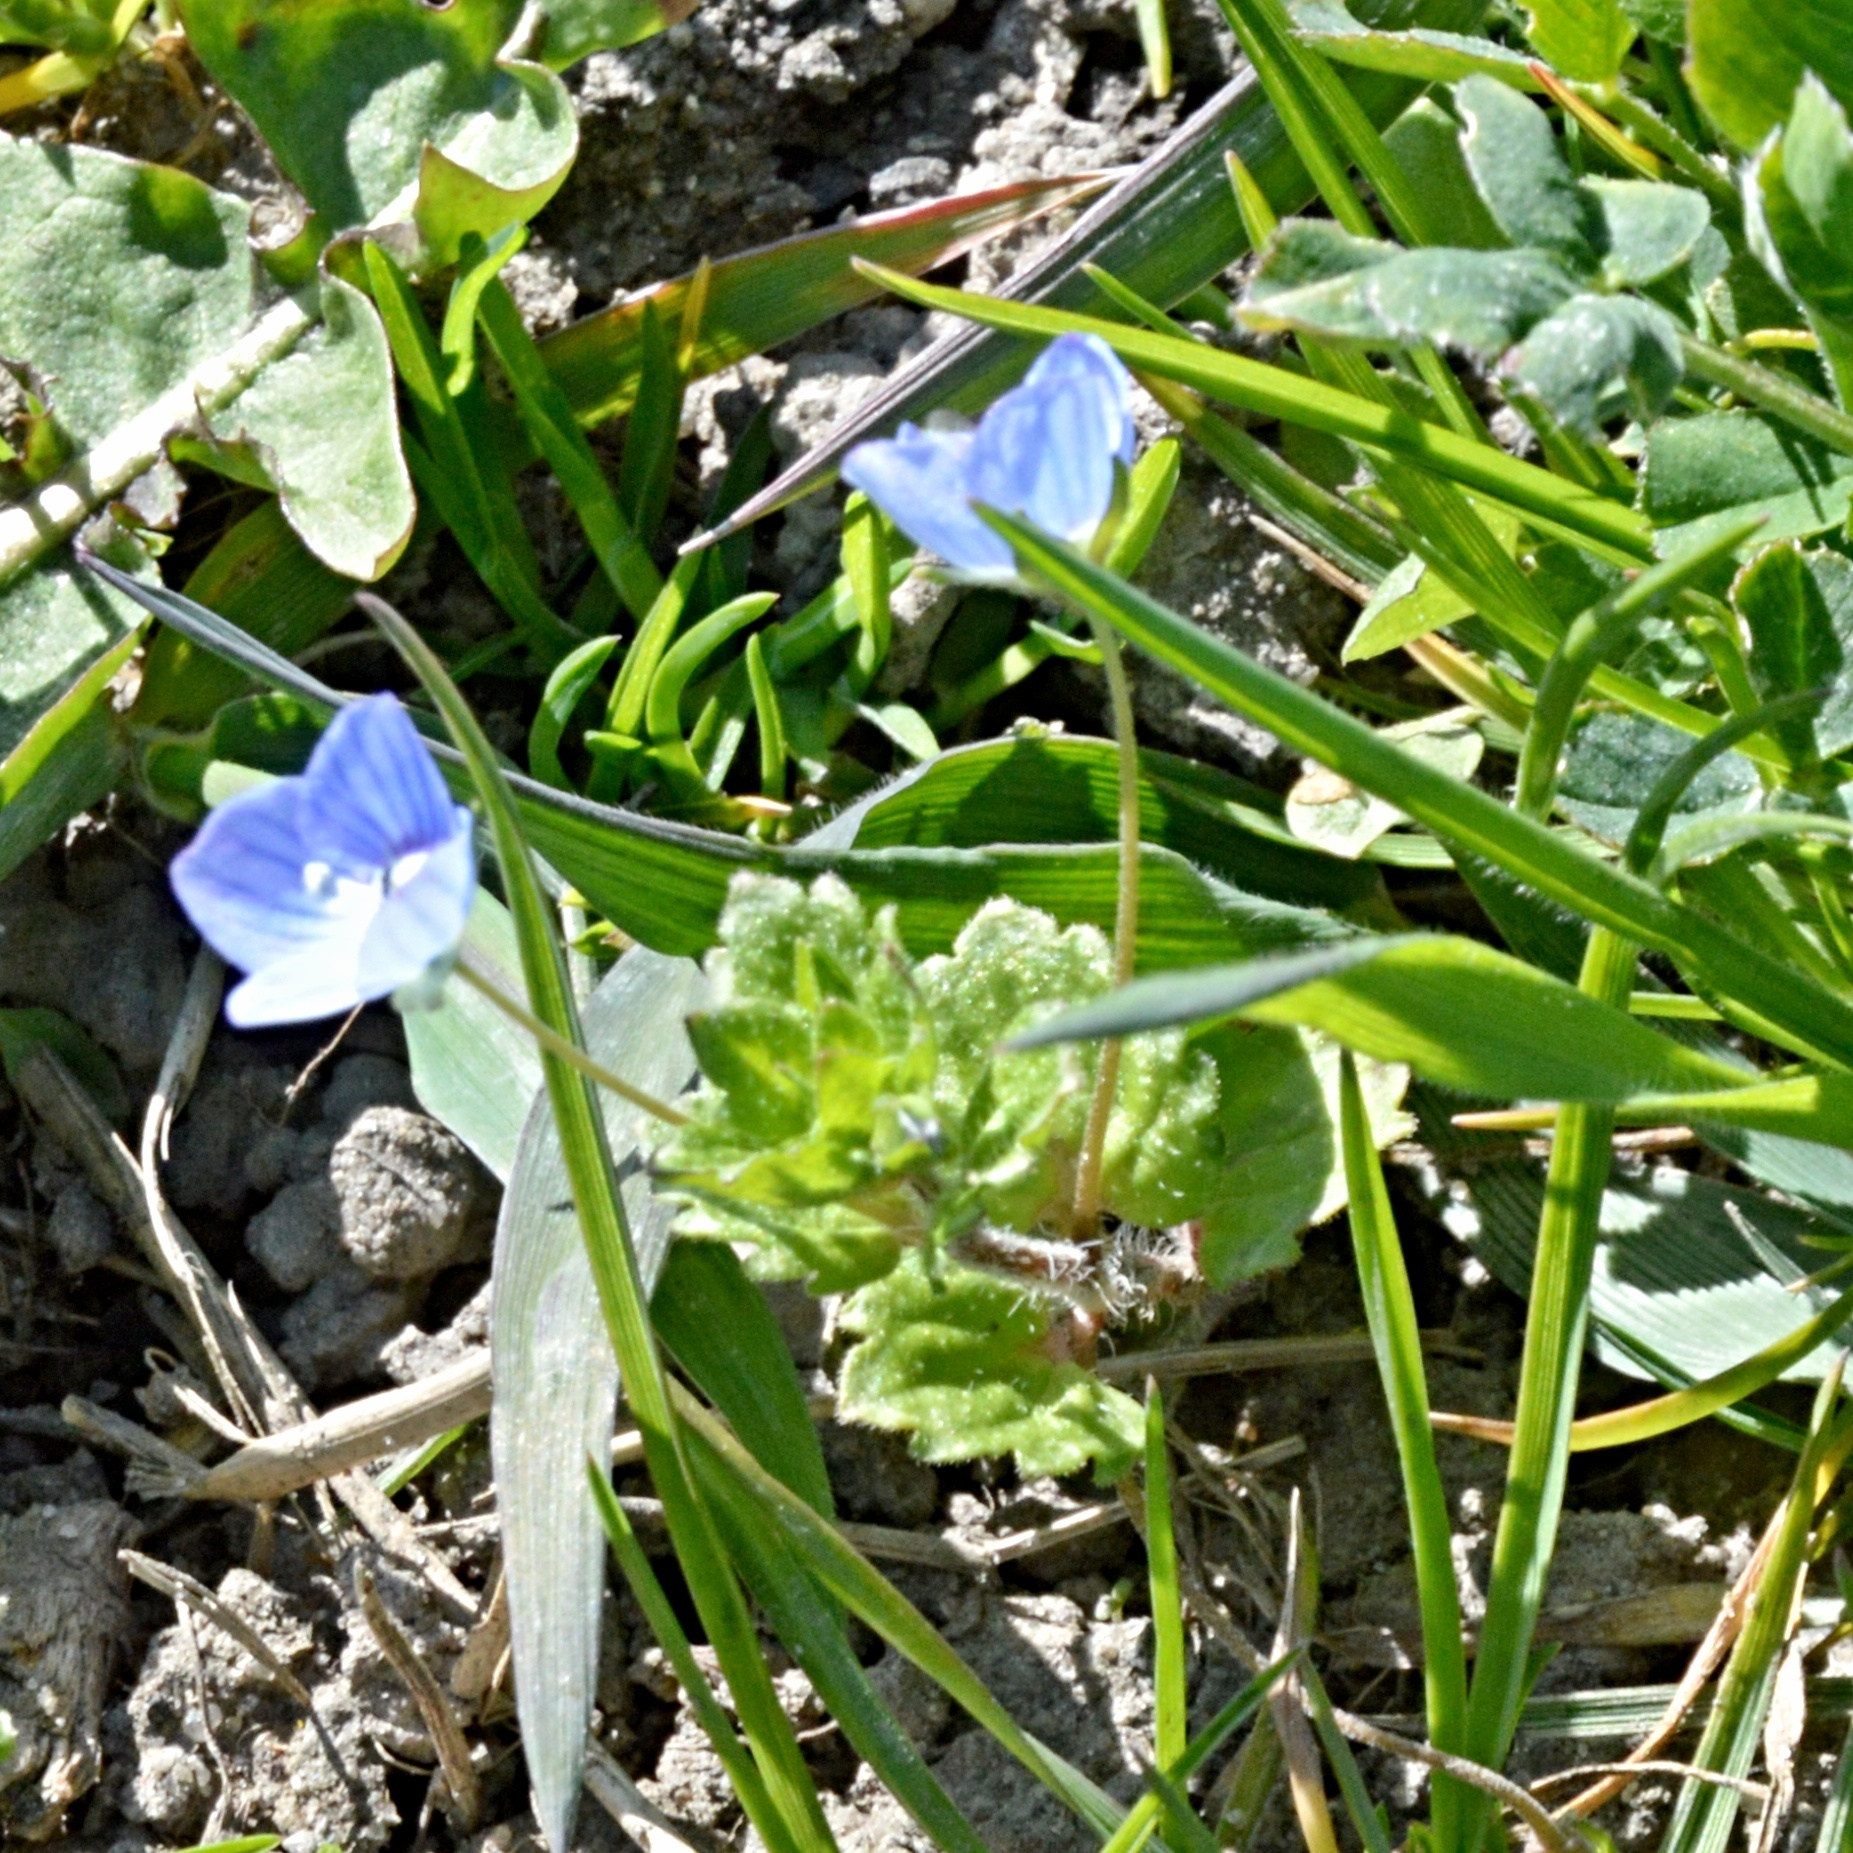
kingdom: Plantae
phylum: Tracheophyta
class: Magnoliopsida
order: Lamiales
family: Plantaginaceae
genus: Veronica
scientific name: Veronica persica
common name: Common field-speedwell
